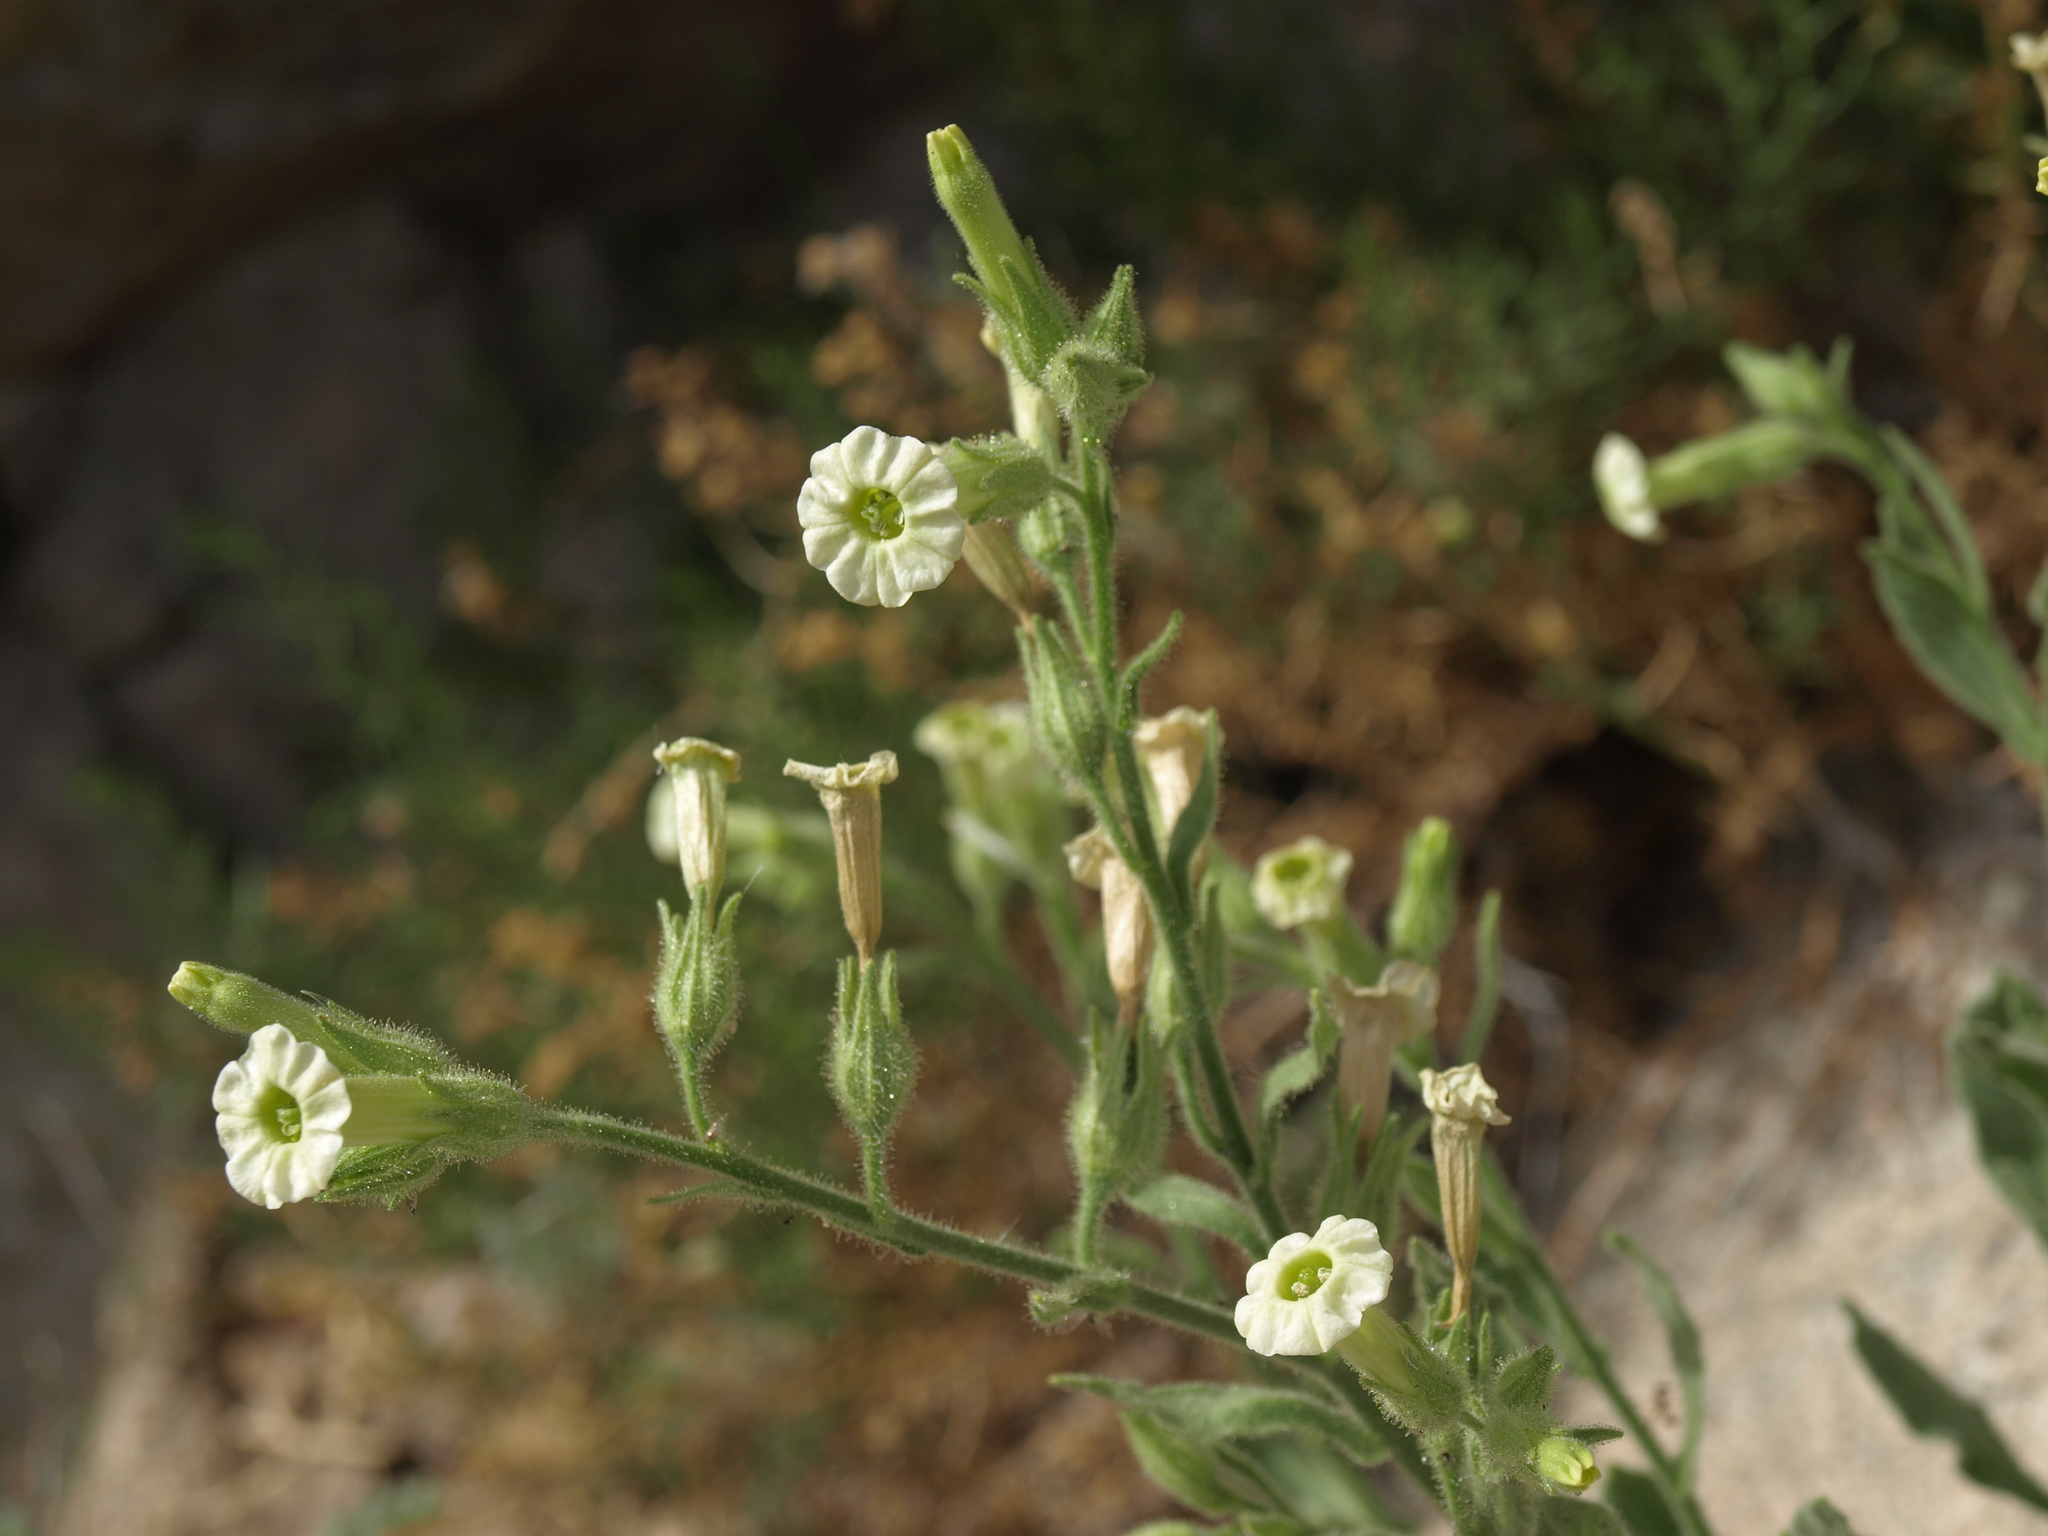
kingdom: Plantae
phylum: Tracheophyta
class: Magnoliopsida
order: Solanales
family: Solanaceae
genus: Nicotiana
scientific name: Nicotiana obtusifolia
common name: Desert tobacco
